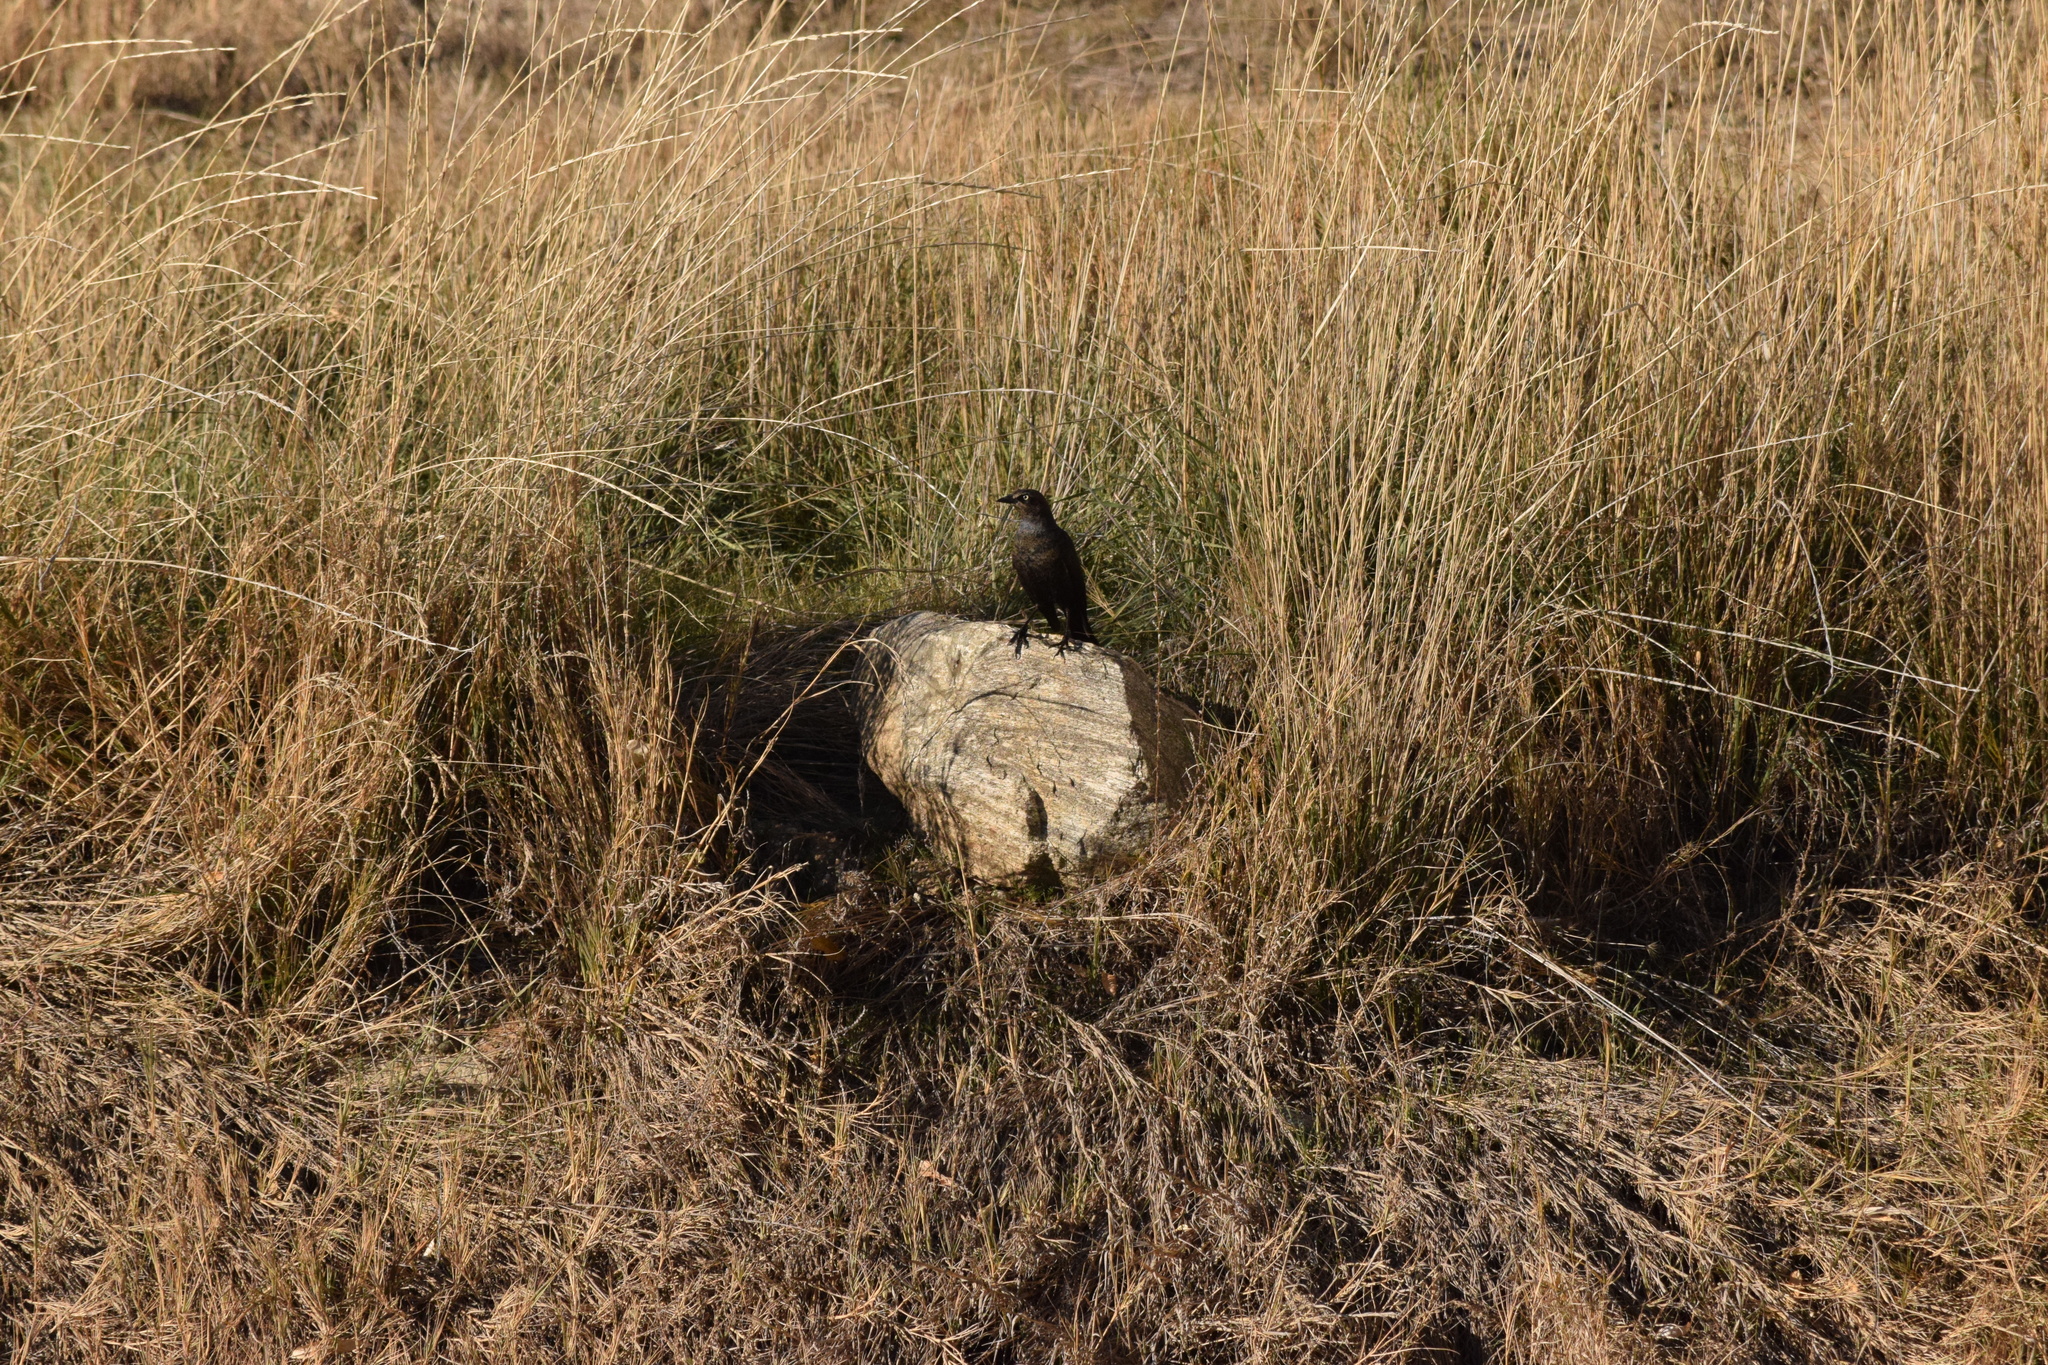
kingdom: Animalia
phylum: Chordata
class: Aves
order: Passeriformes
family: Icteridae
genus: Euphagus
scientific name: Euphagus cyanocephalus
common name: Brewer's blackbird
